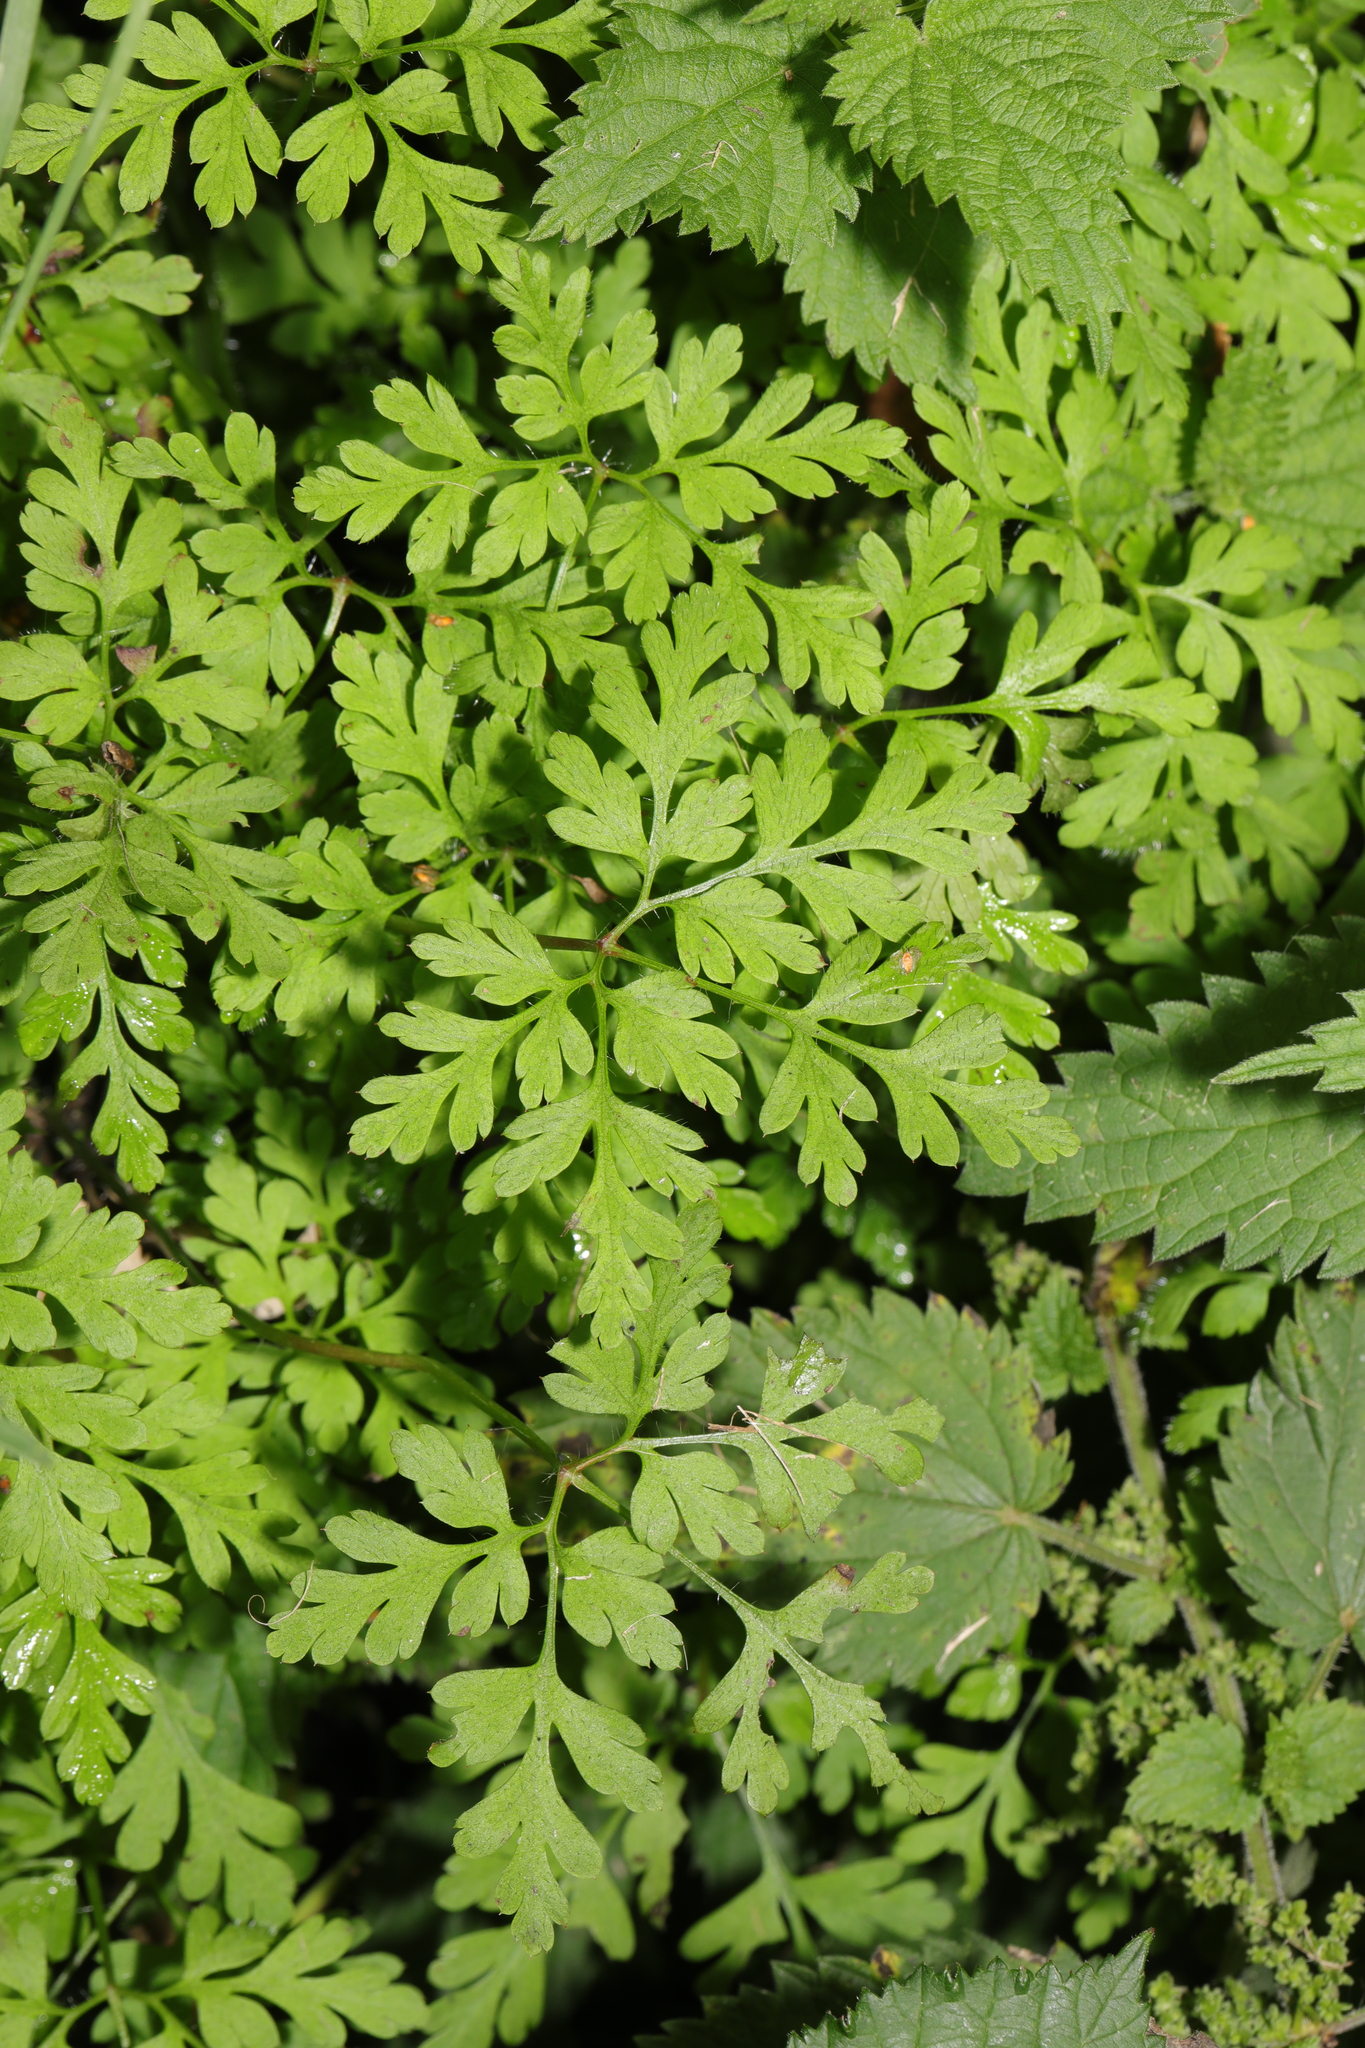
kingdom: Plantae
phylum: Tracheophyta
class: Magnoliopsida
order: Geraniales
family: Geraniaceae
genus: Geranium
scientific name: Geranium robertianum
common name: Herb-robert
